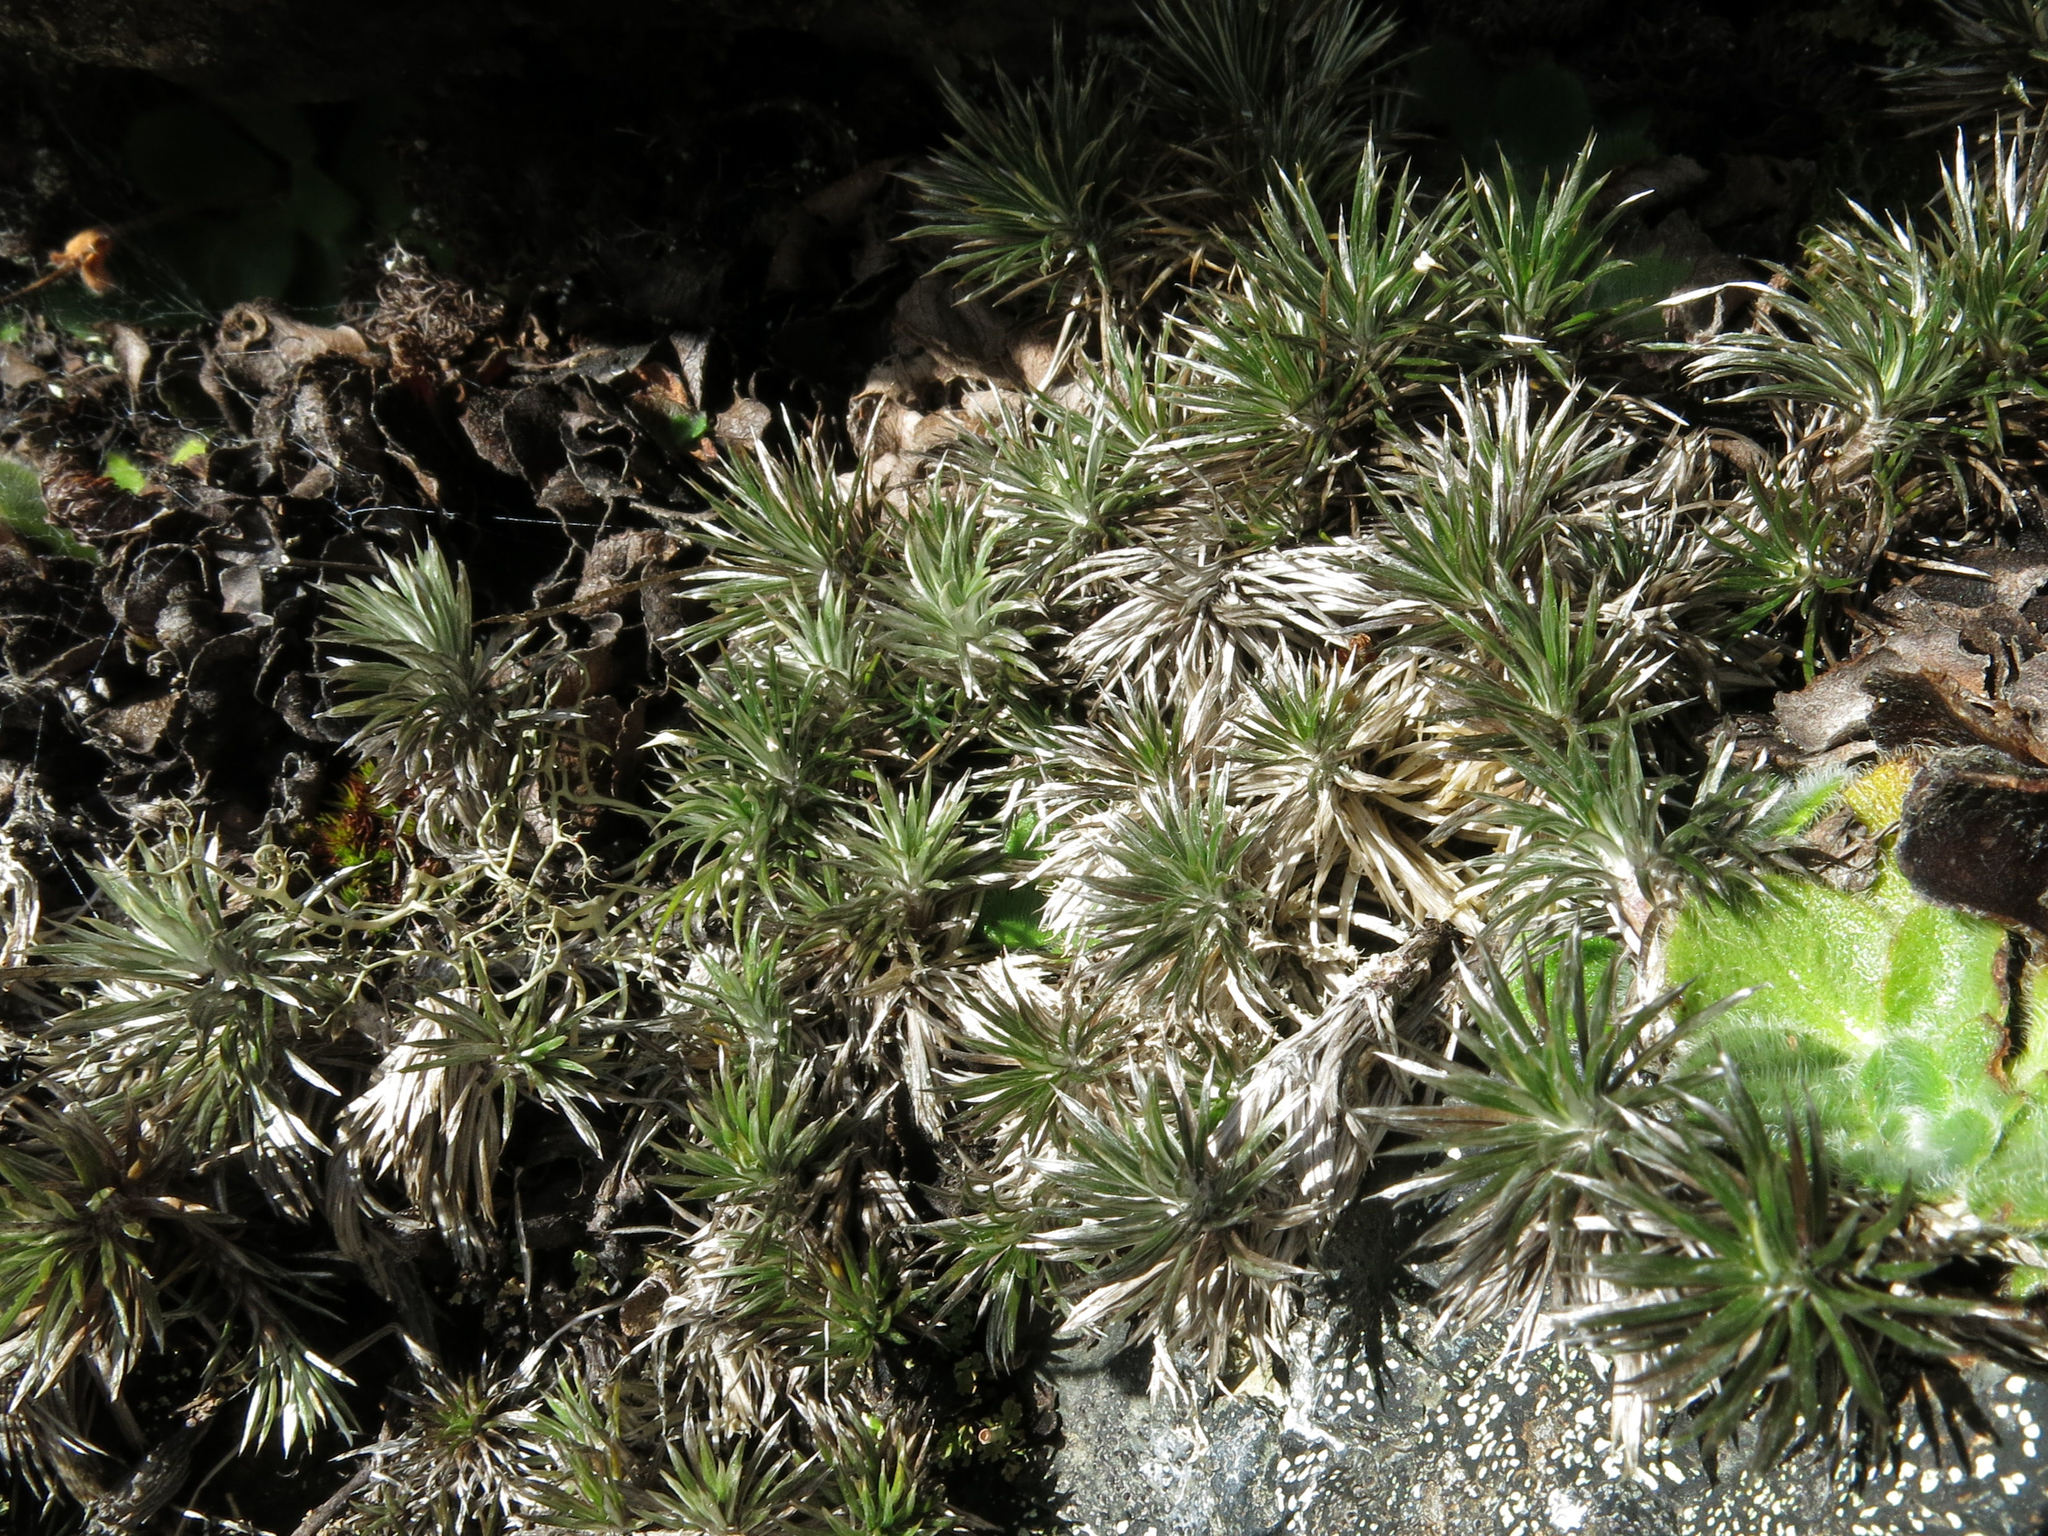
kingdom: Plantae
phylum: Tracheophyta
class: Magnoliopsida
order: Asterales
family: Asteraceae
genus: Celmisia
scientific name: Celmisia laricifolia
